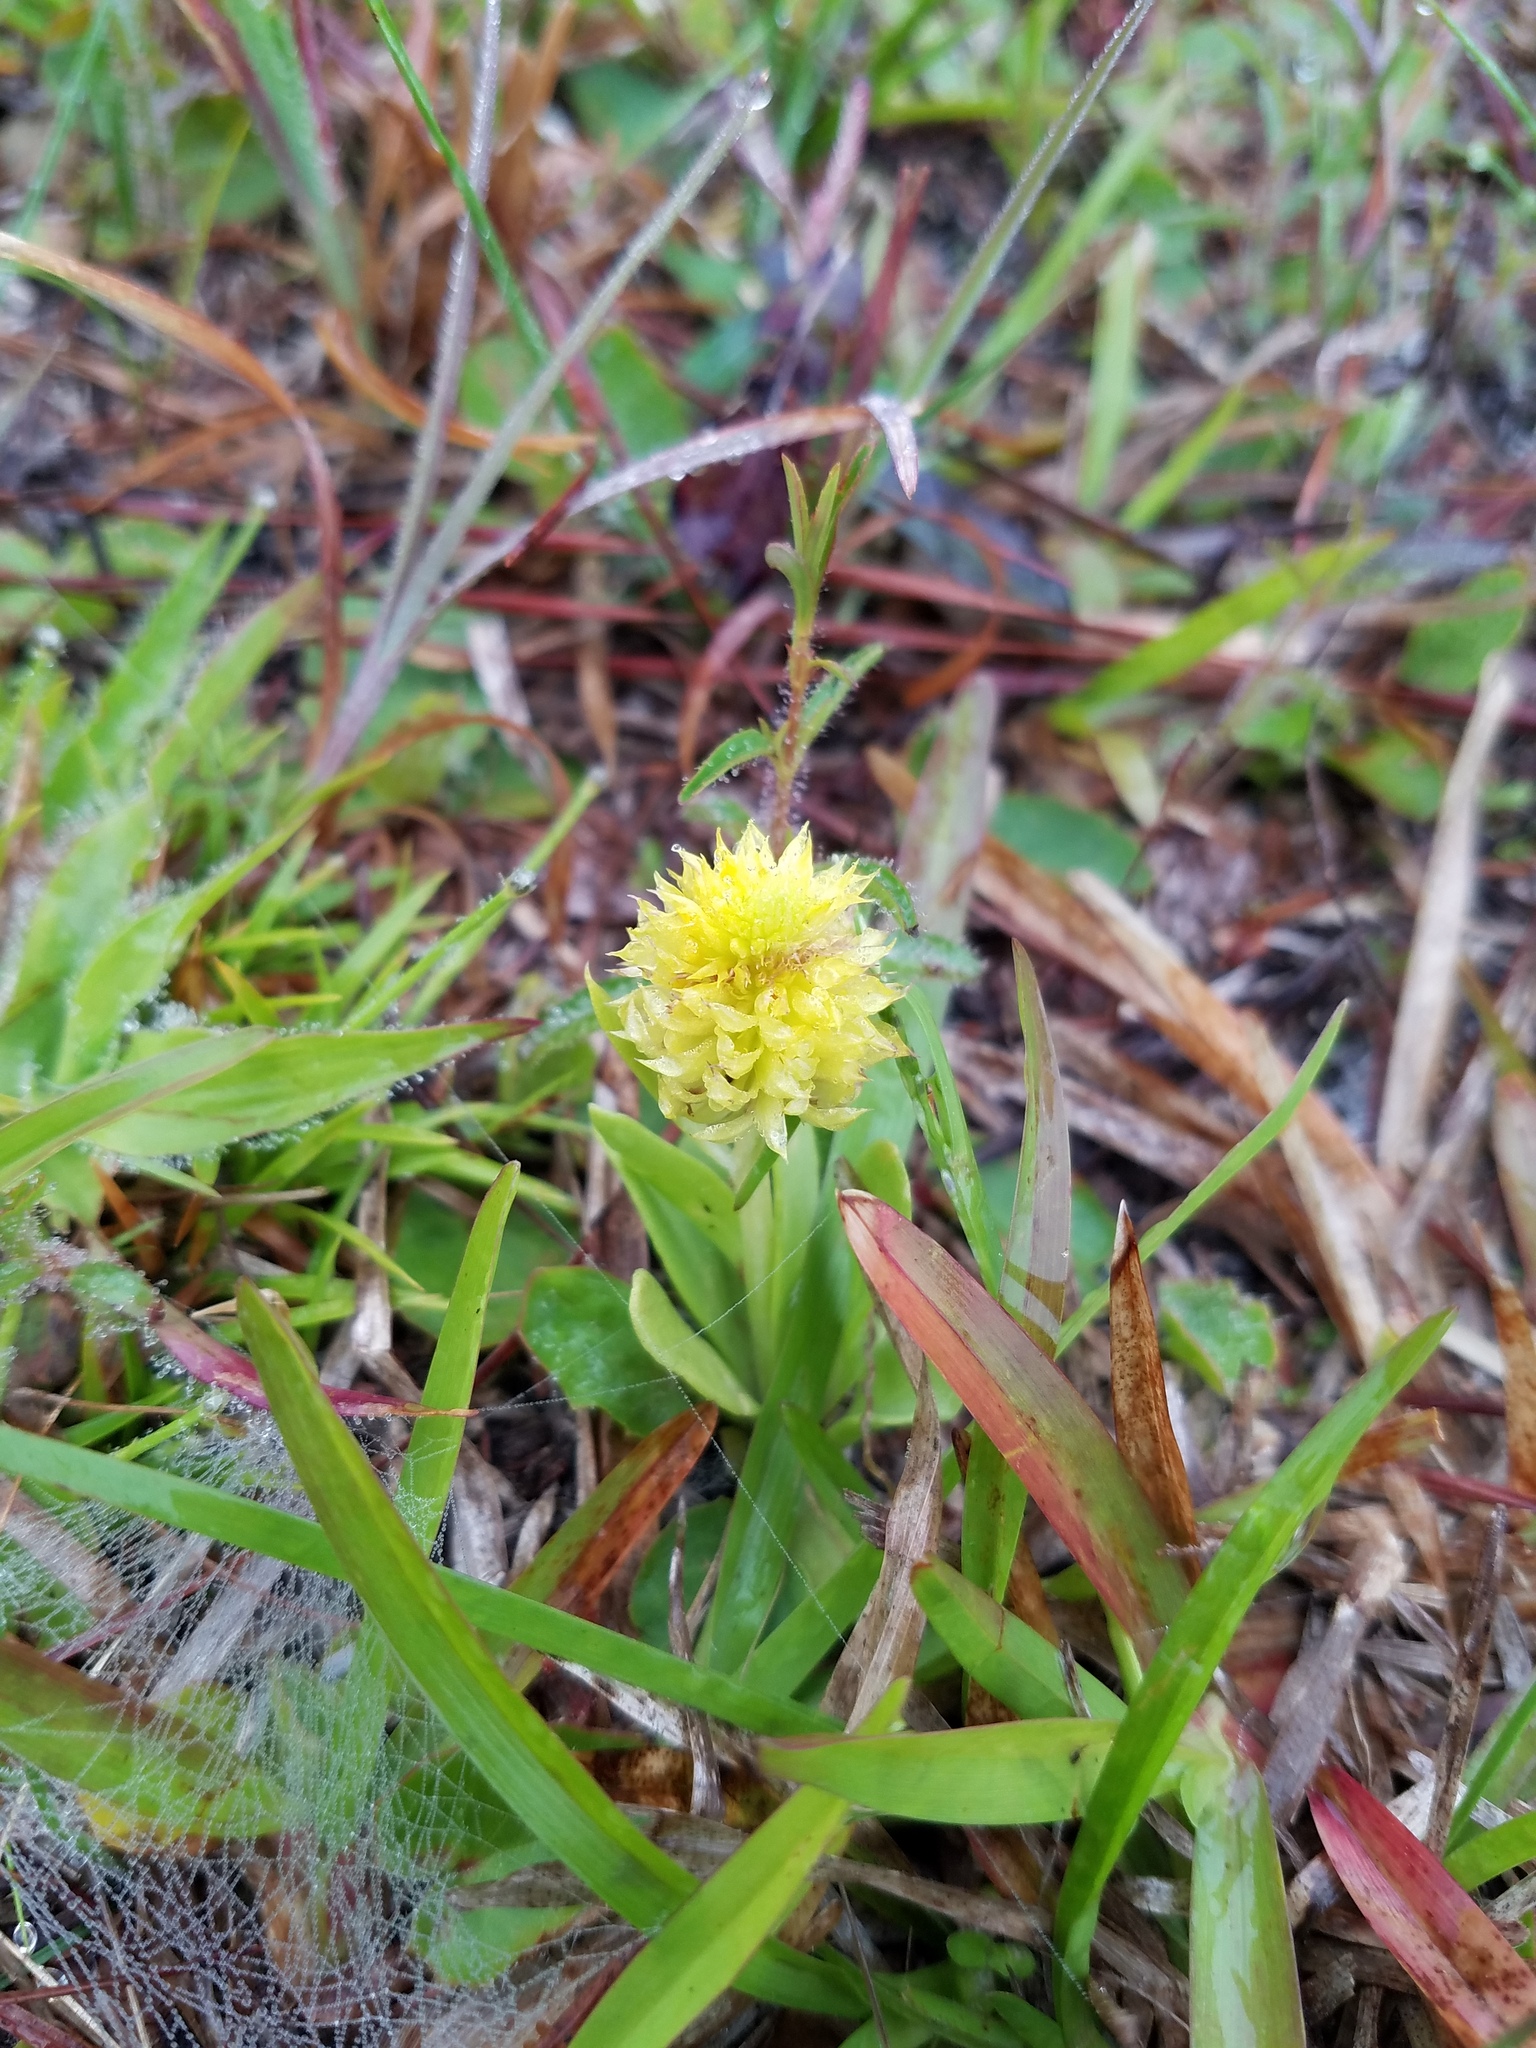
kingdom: Plantae
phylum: Tracheophyta
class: Magnoliopsida
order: Fabales
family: Polygalaceae
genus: Polygala
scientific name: Polygala nana
